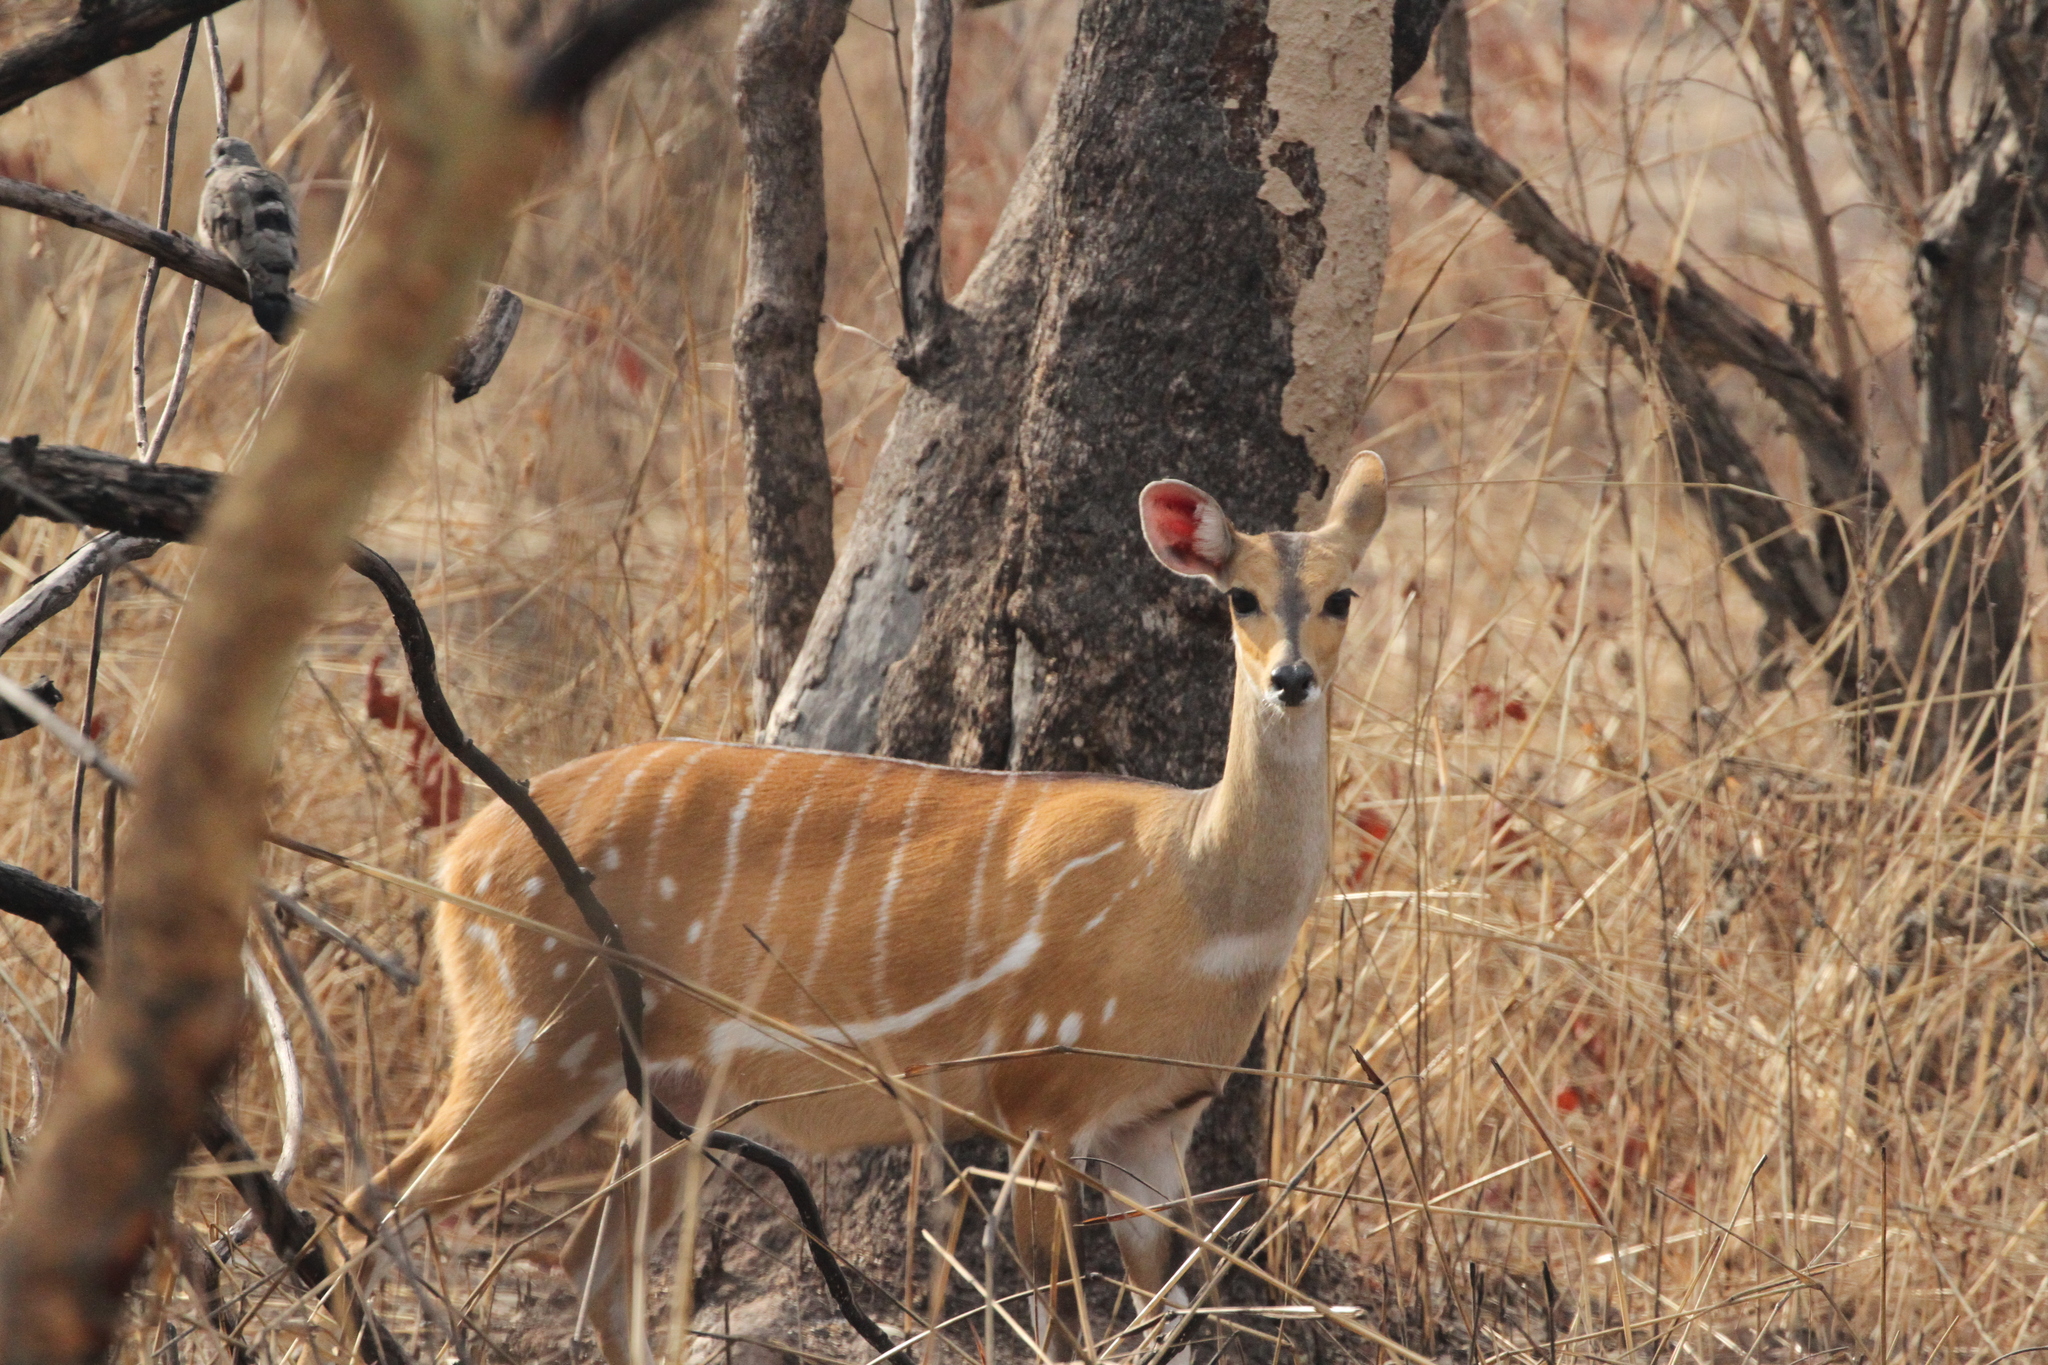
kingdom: Animalia
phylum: Chordata
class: Mammalia
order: Artiodactyla
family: Bovidae
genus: Tragelaphus
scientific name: Tragelaphus scriptus
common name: Bushbuck
